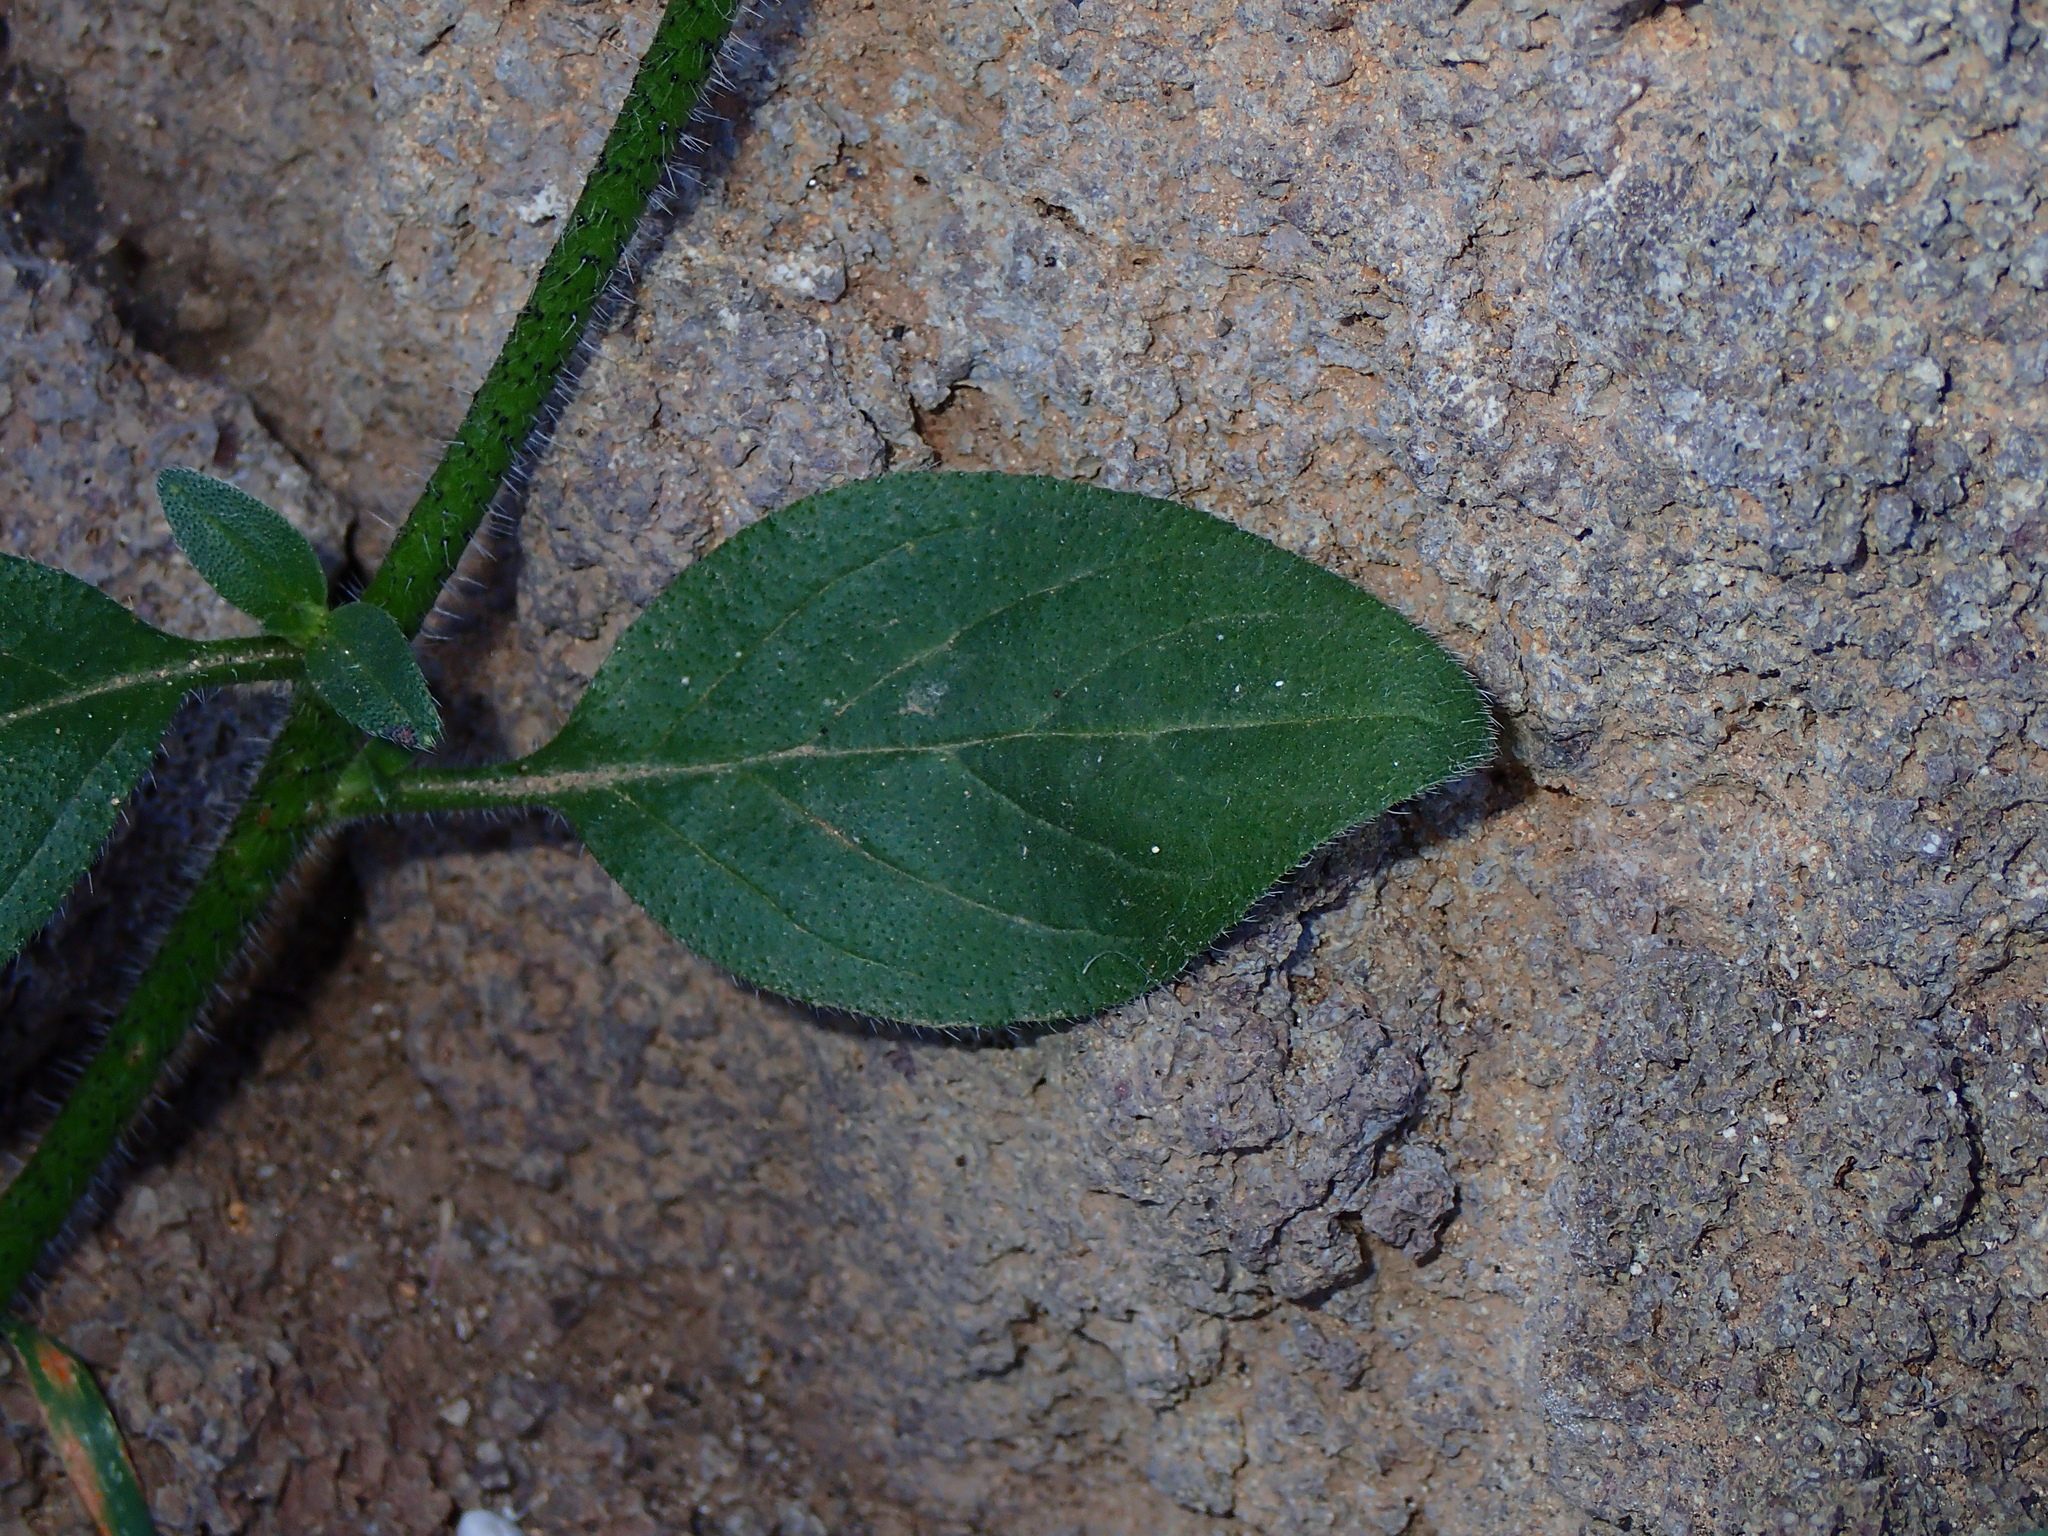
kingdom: Plantae
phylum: Tracheophyta
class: Magnoliopsida
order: Boraginales
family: Boraginaceae
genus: Echium
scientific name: Echium pitardii
